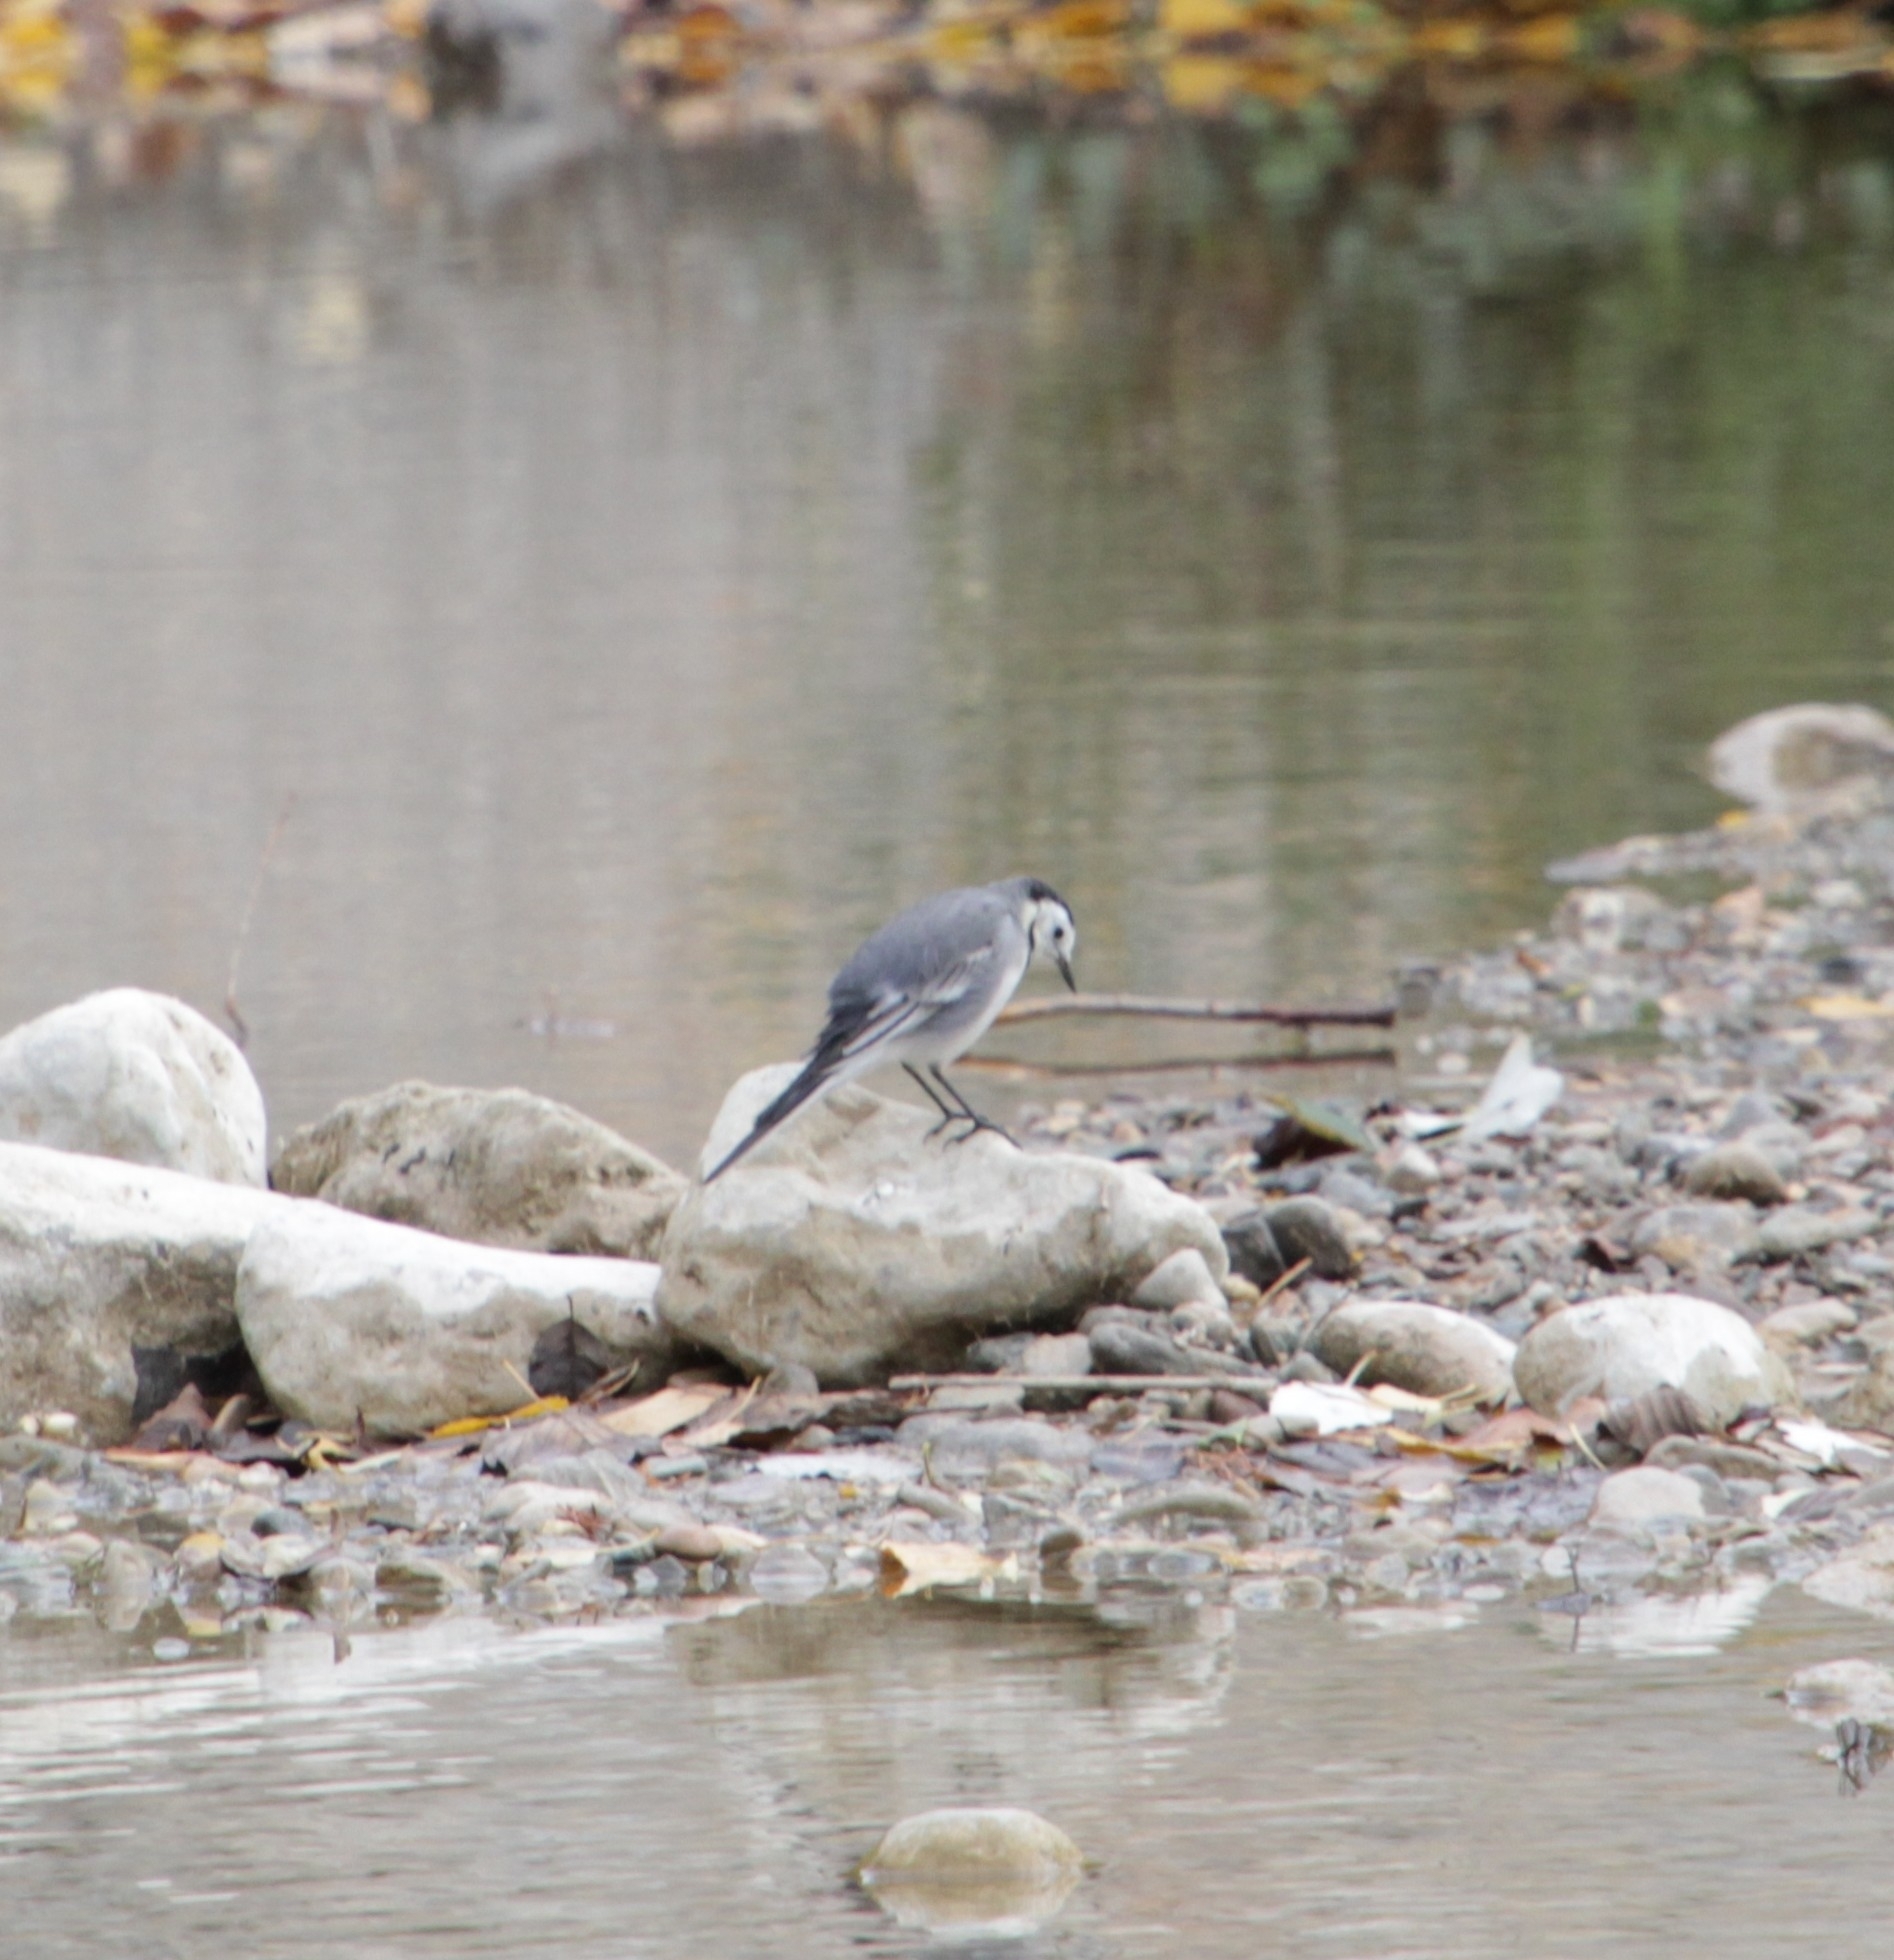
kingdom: Animalia
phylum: Chordata
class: Aves
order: Passeriformes
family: Motacillidae
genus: Motacilla
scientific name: Motacilla alba
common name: White wagtail
